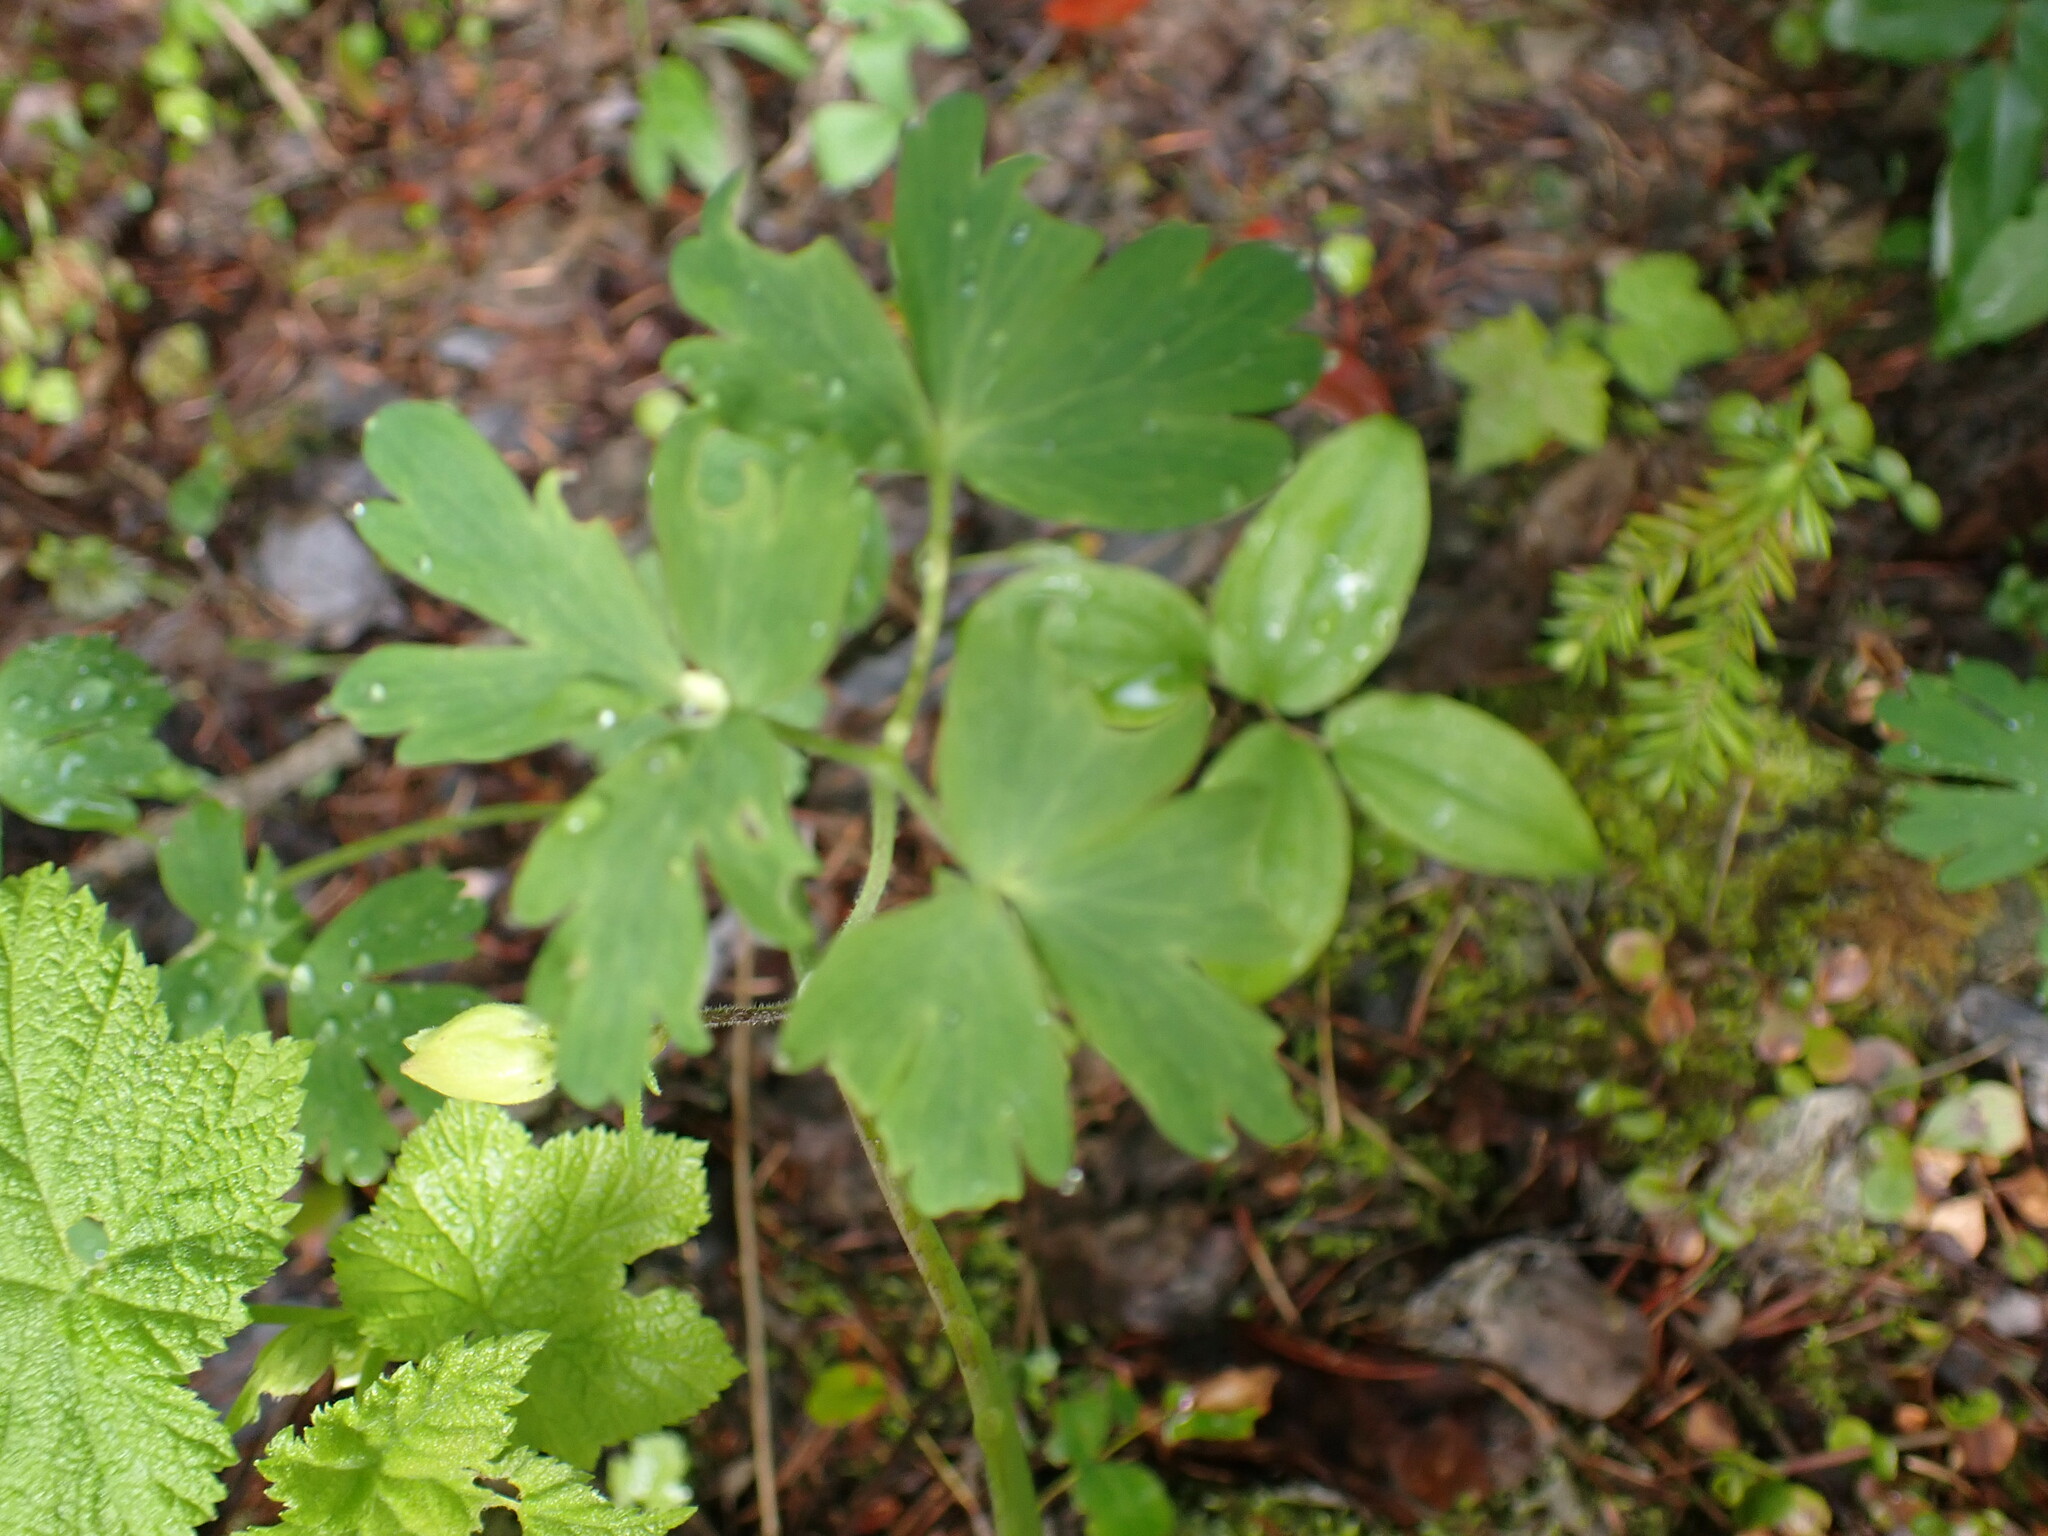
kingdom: Plantae
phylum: Tracheophyta
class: Magnoliopsida
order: Ranunculales
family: Ranunculaceae
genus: Aquilegia
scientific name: Aquilegia flavescens
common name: Yellow columbine
